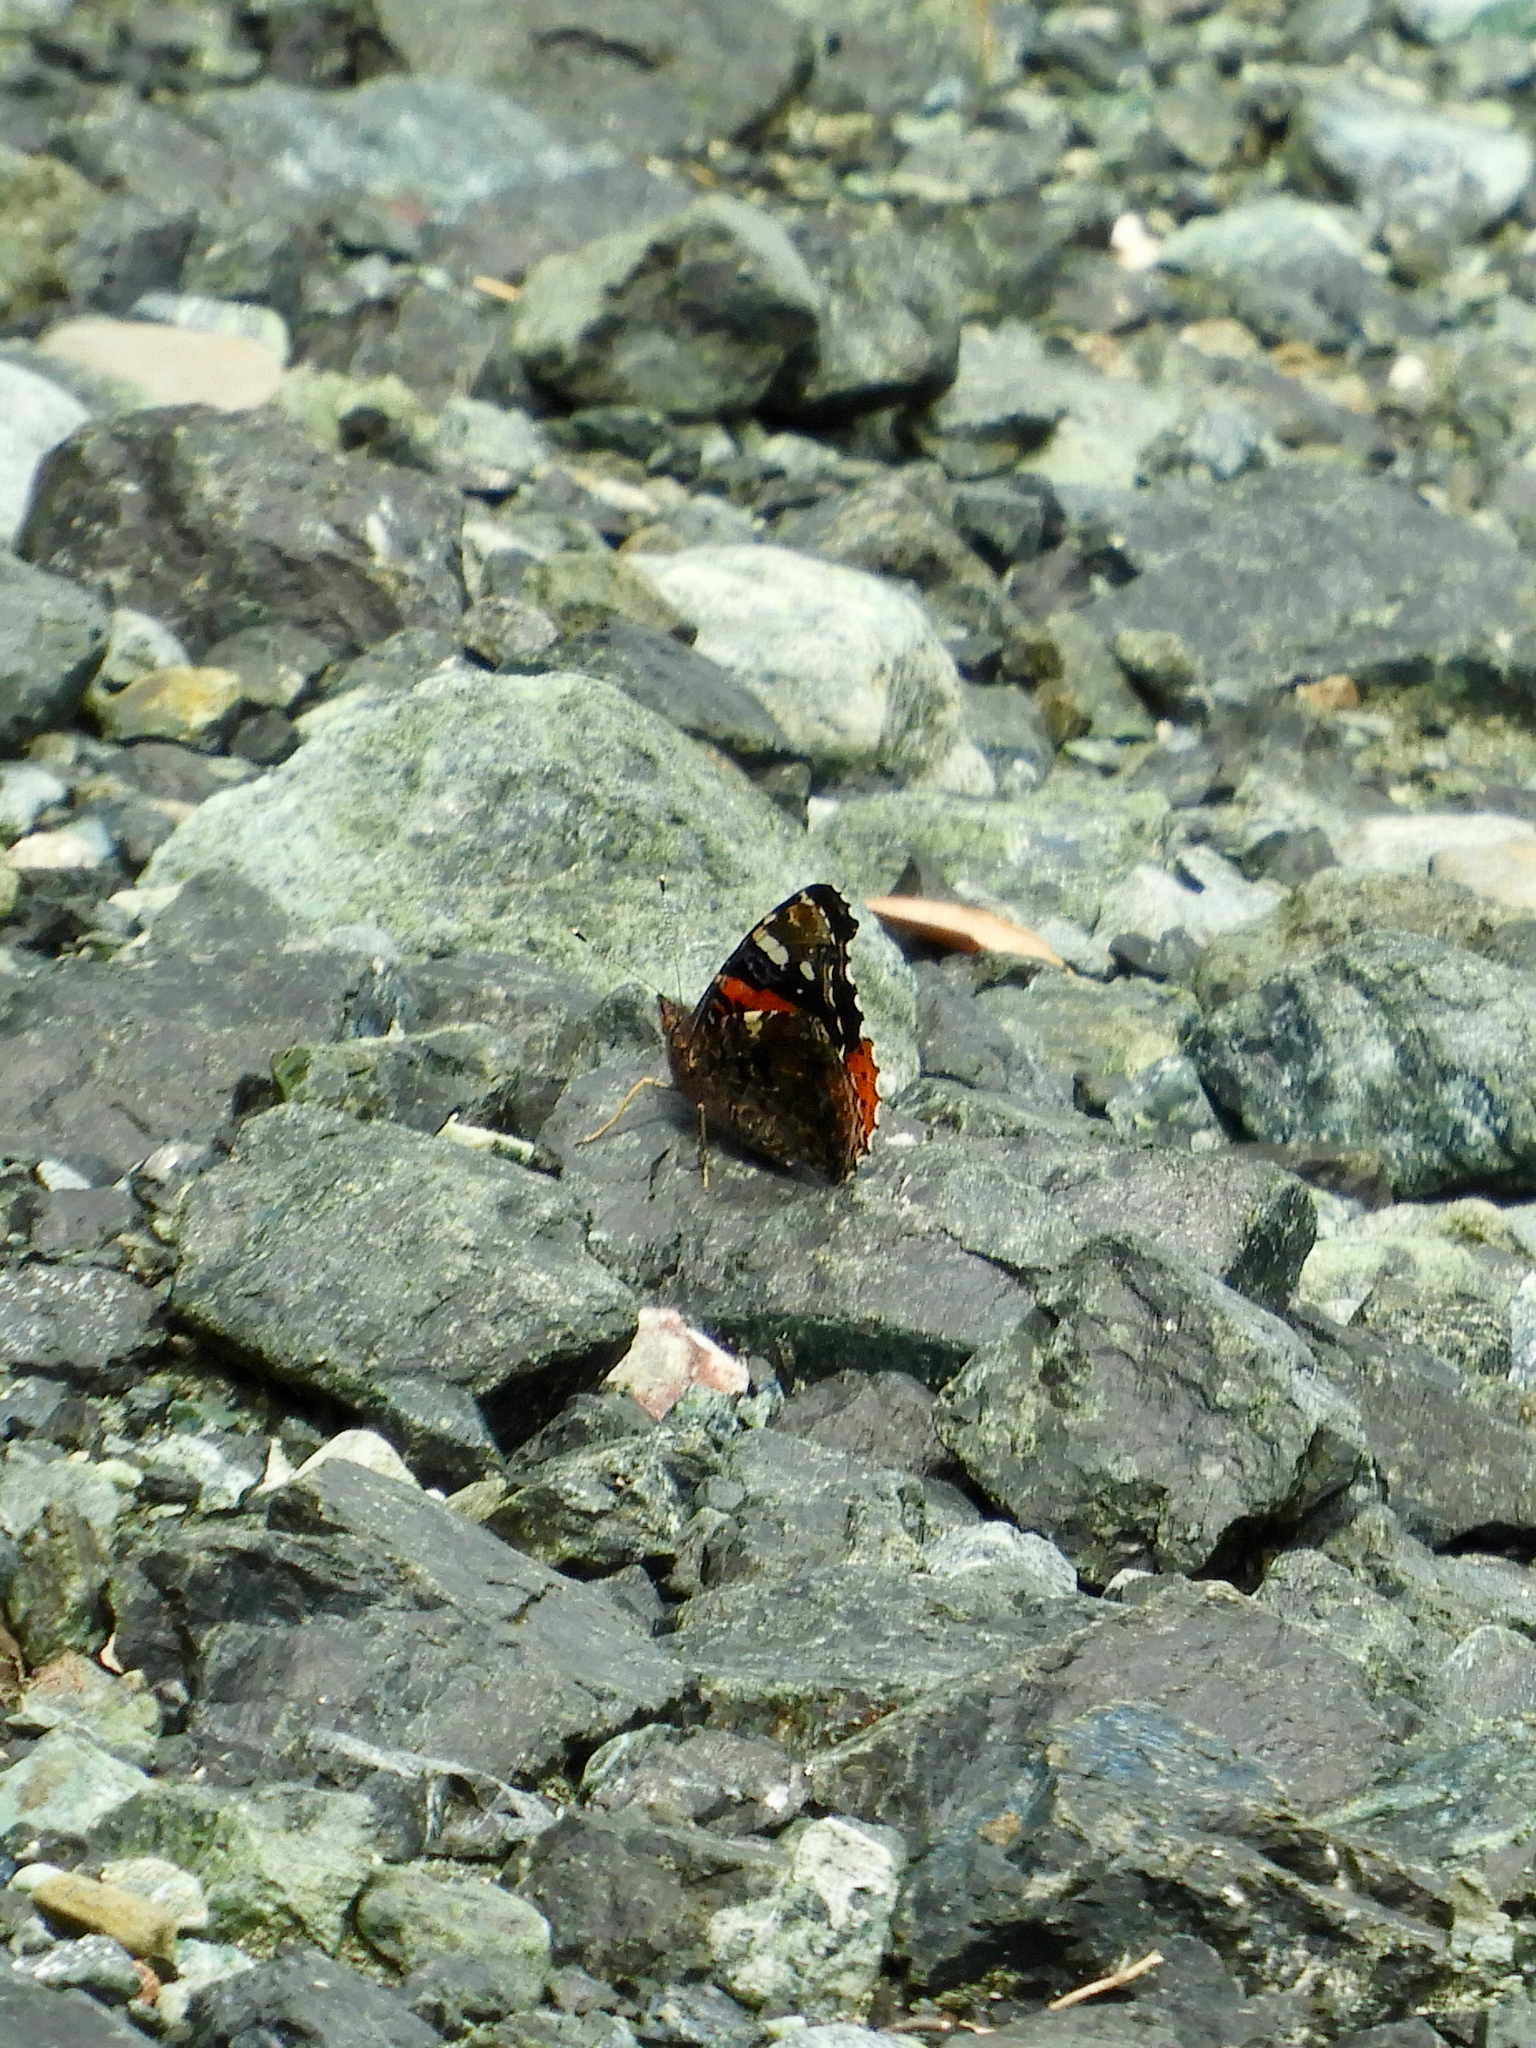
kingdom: Animalia
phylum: Arthropoda
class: Insecta
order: Lepidoptera
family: Nymphalidae
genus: Vanessa
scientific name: Vanessa atalanta
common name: Red admiral
